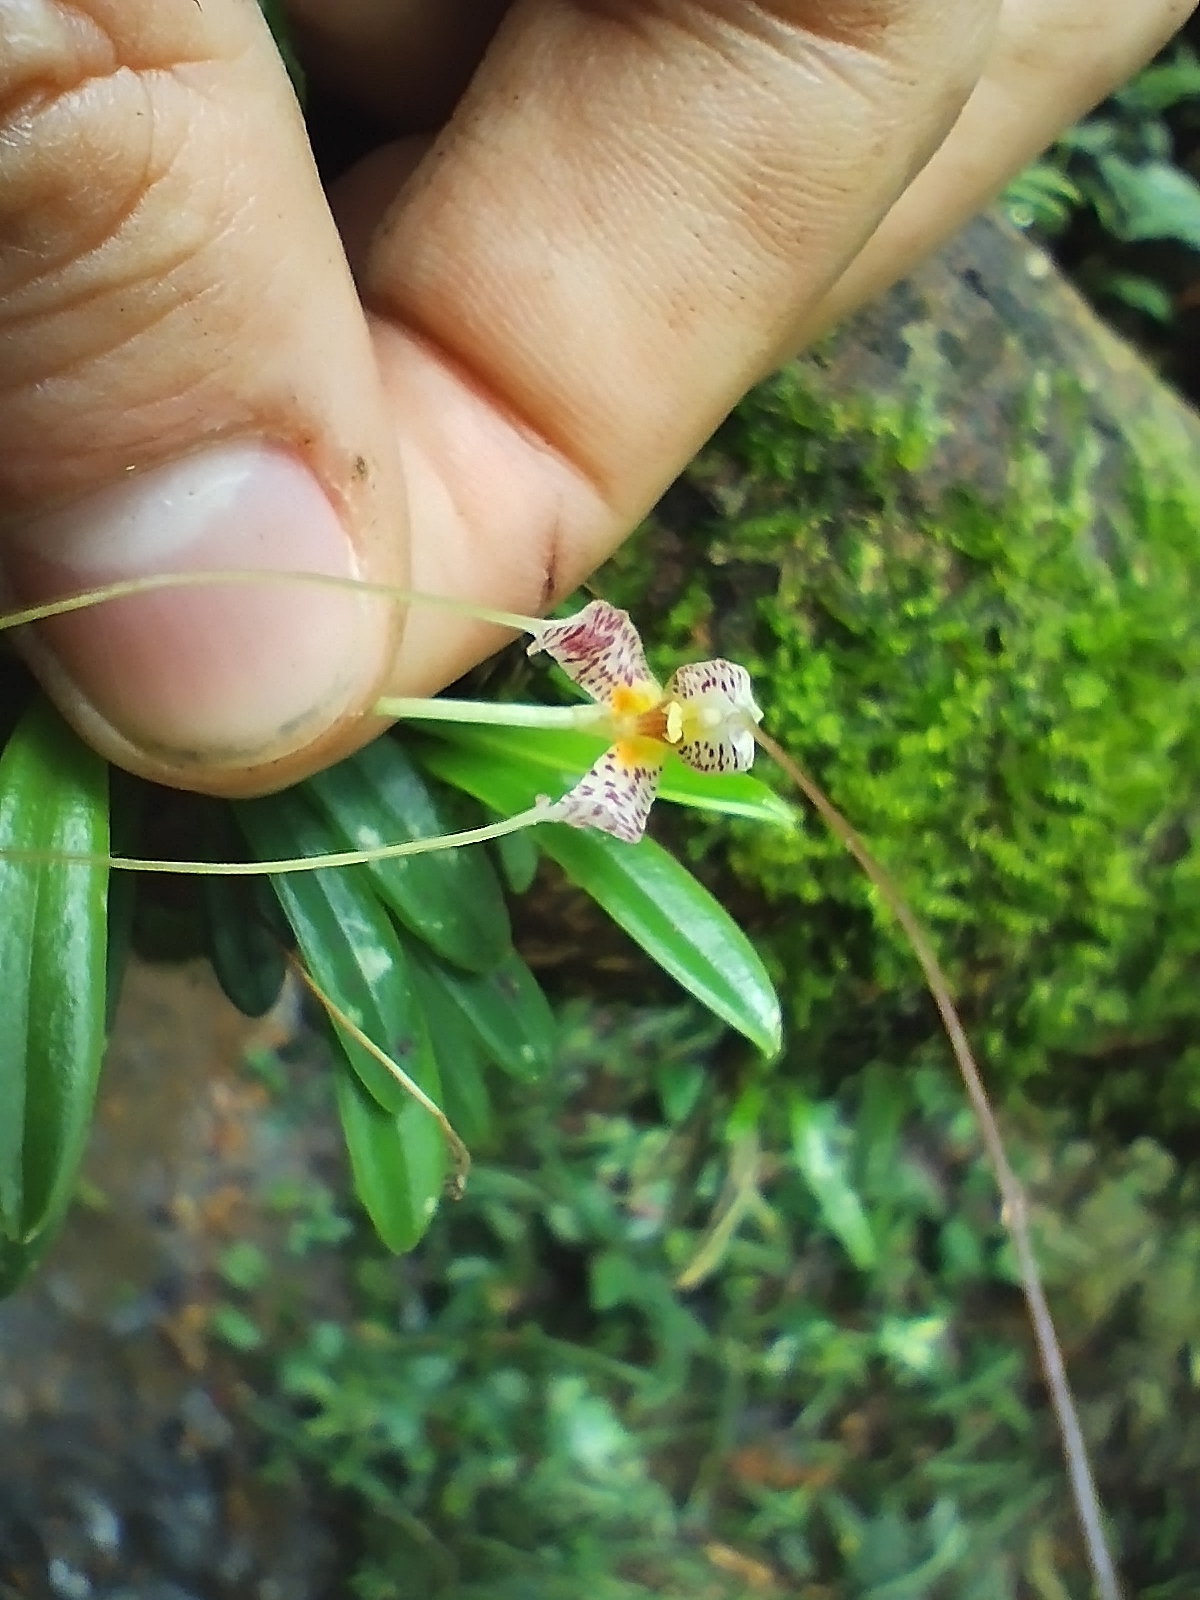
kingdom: Plantae
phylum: Tracheophyta
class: Liliopsida
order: Asparagales
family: Orchidaceae
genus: Masdevallia
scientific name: Masdevallia picturata
